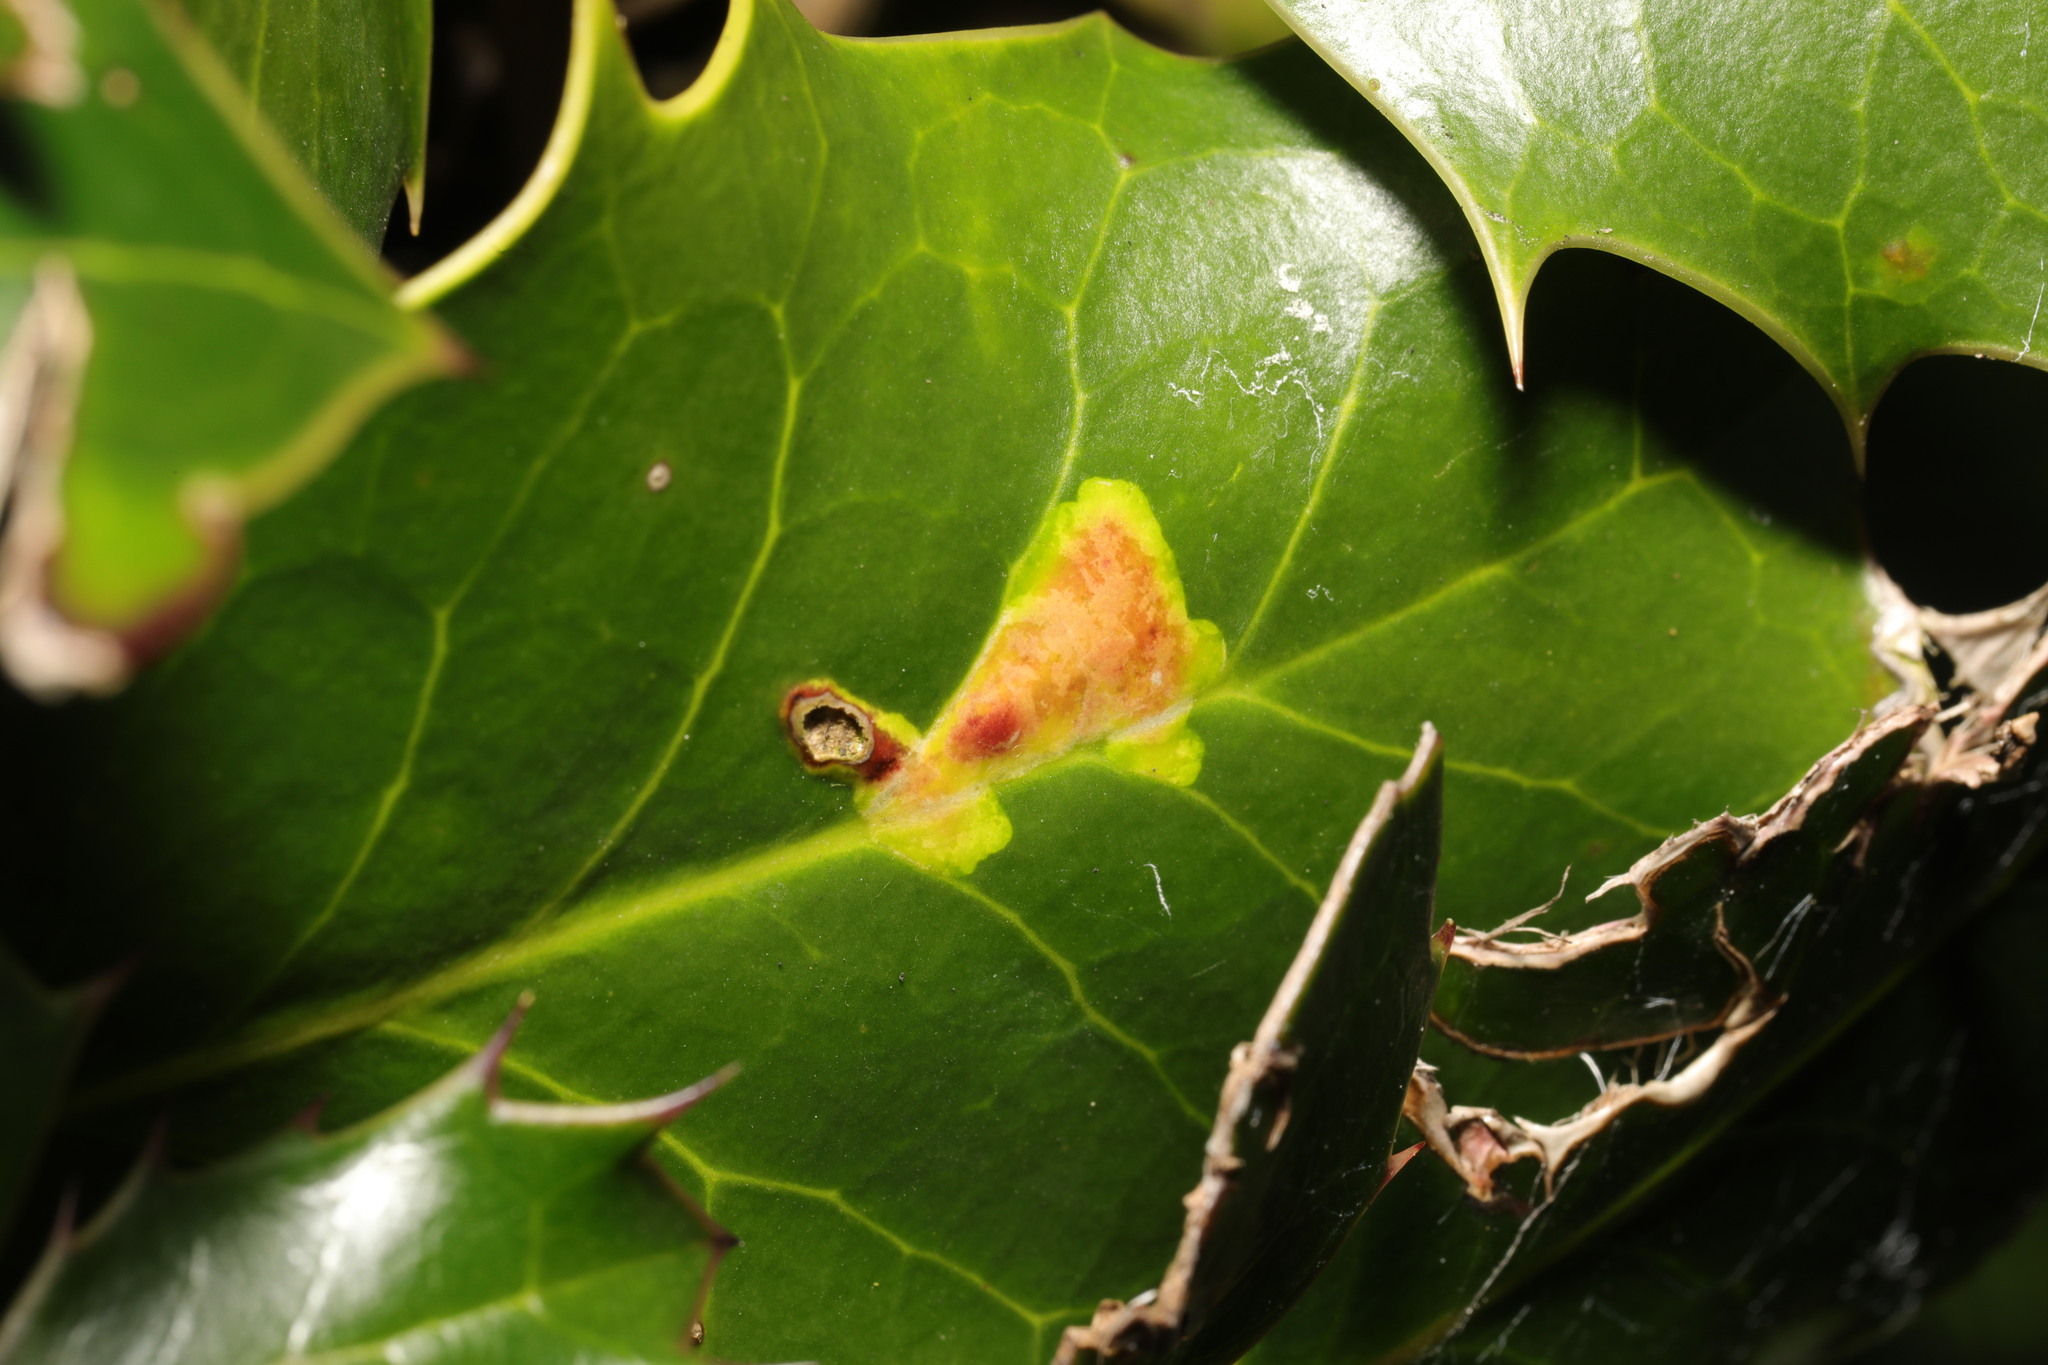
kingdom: Animalia
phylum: Arthropoda
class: Insecta
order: Diptera
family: Agromyzidae
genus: Phytomyza
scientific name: Phytomyza ilicis
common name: Holly leafminer
